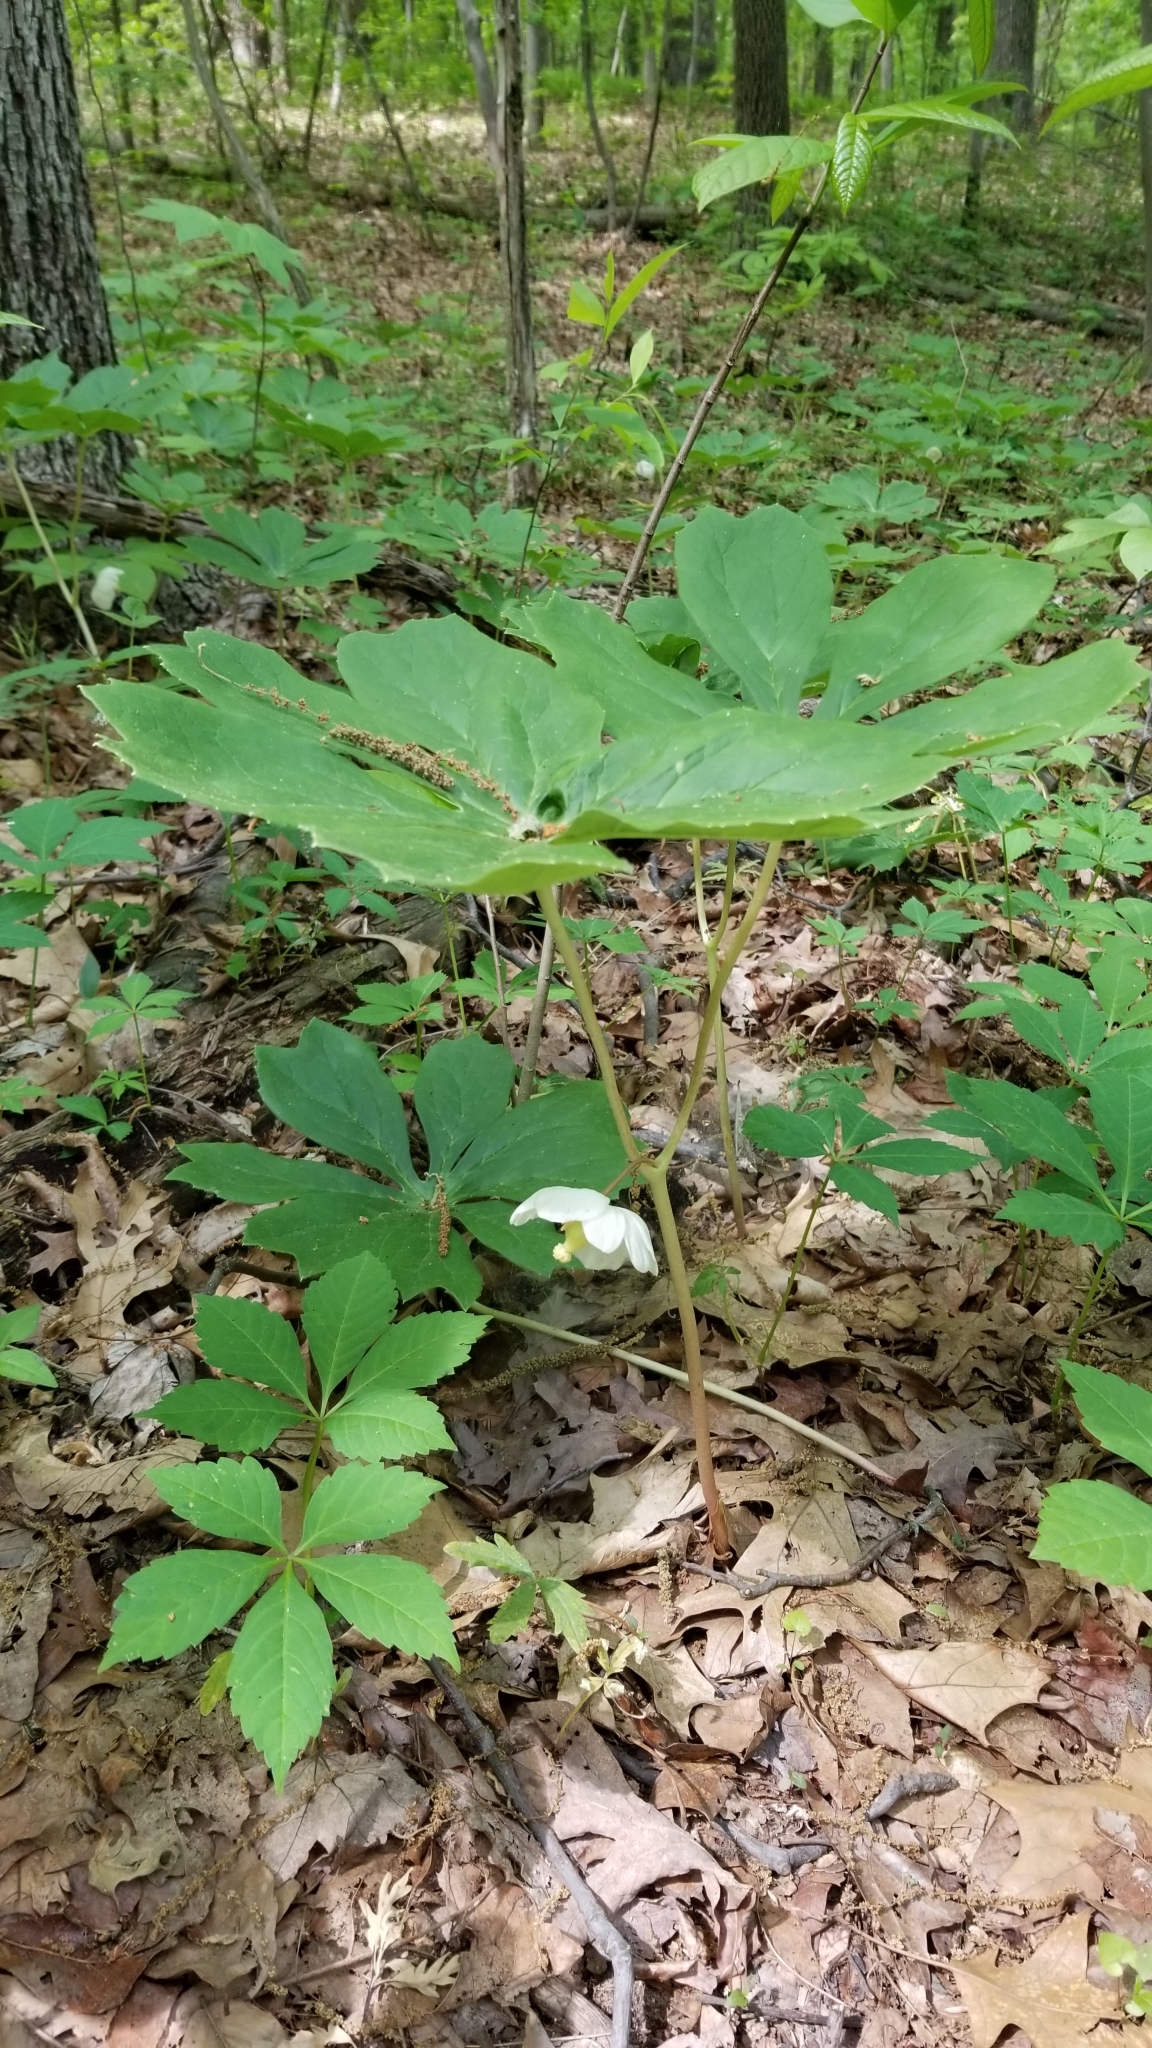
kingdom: Plantae
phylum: Tracheophyta
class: Magnoliopsida
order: Ranunculales
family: Berberidaceae
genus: Podophyllum
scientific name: Podophyllum peltatum
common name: Wild mandrake
